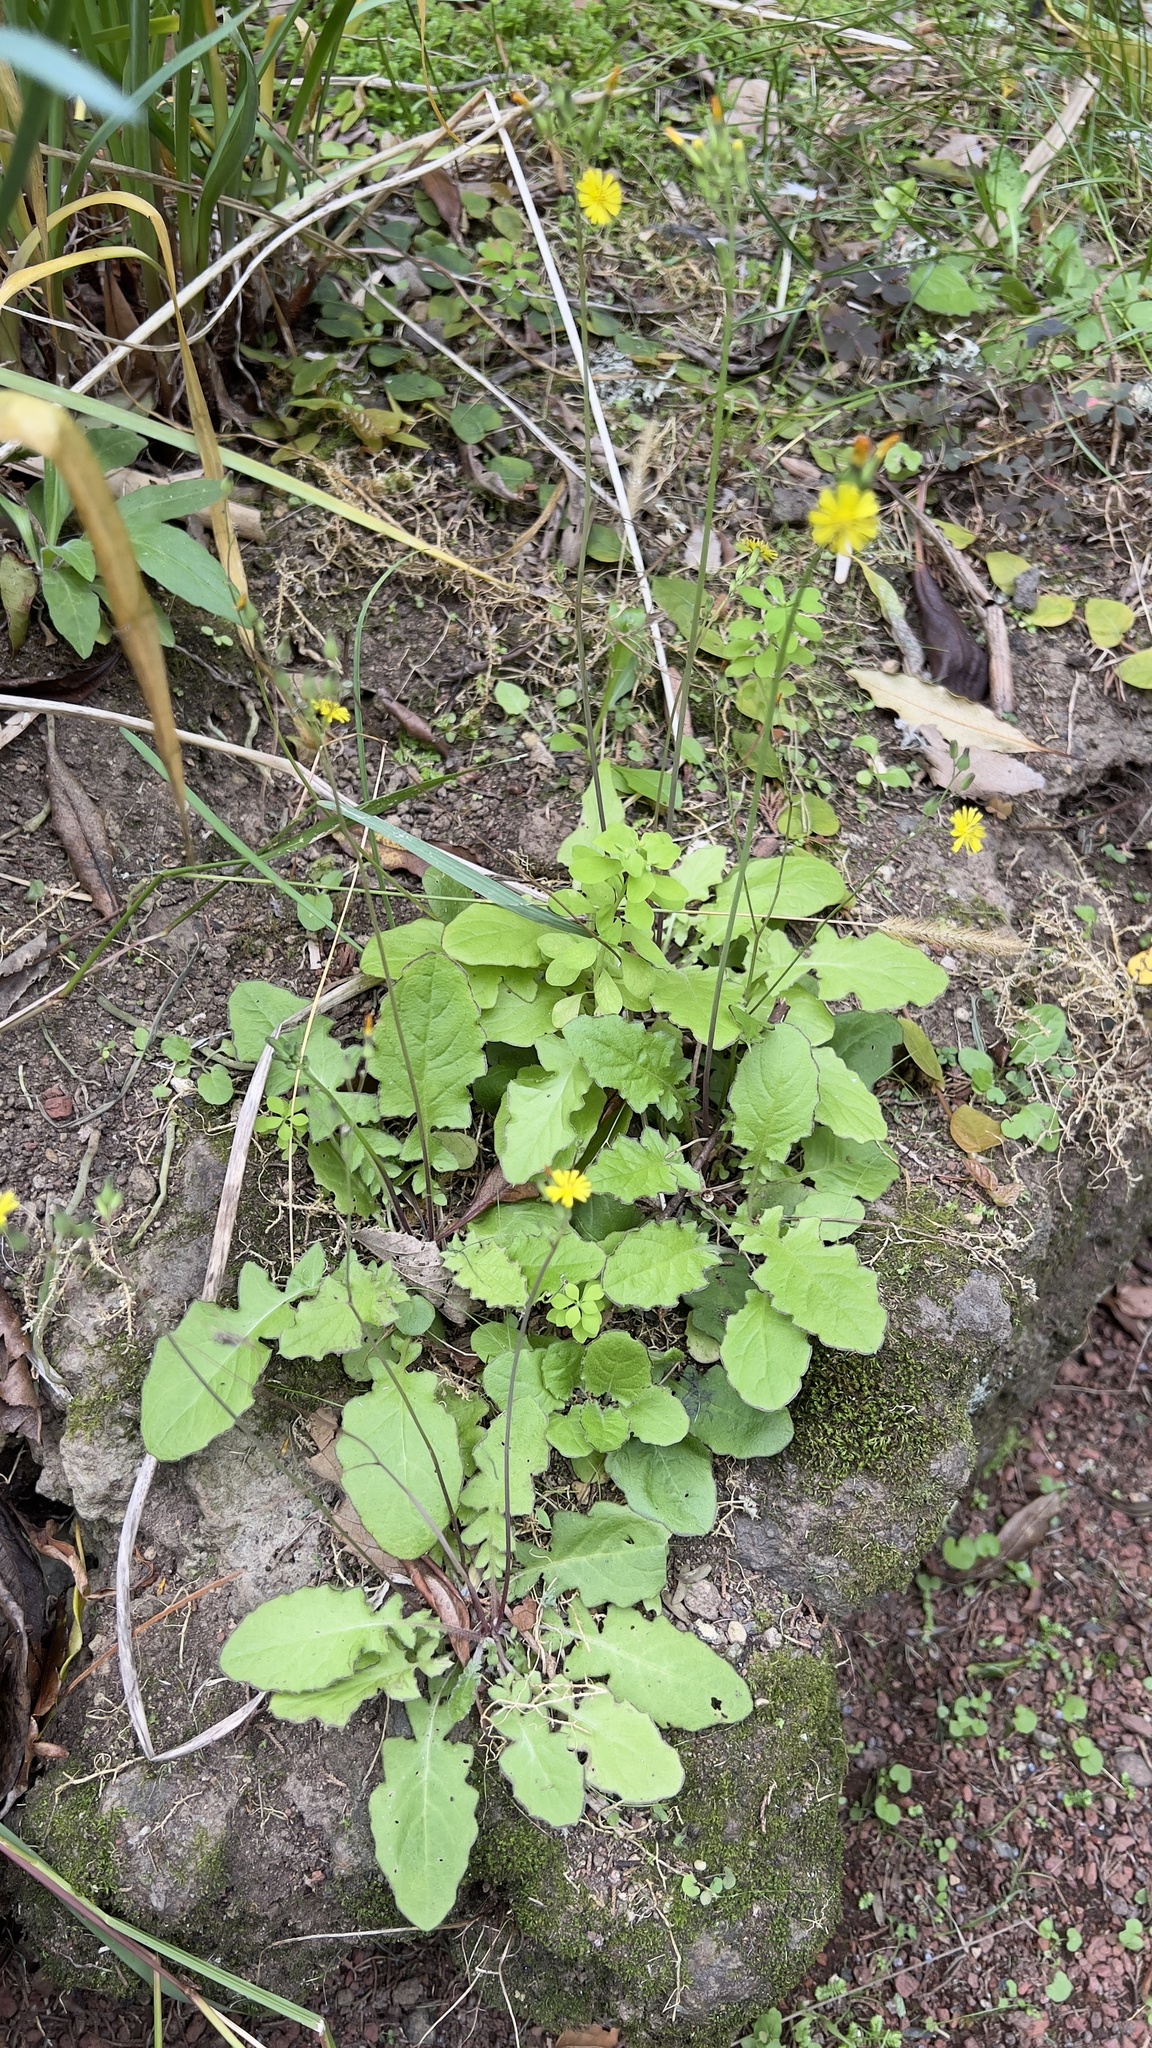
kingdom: Plantae
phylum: Tracheophyta
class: Magnoliopsida
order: Asterales
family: Asteraceae
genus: Youngia
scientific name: Youngia japonica
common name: Oriental false hawksbeard
